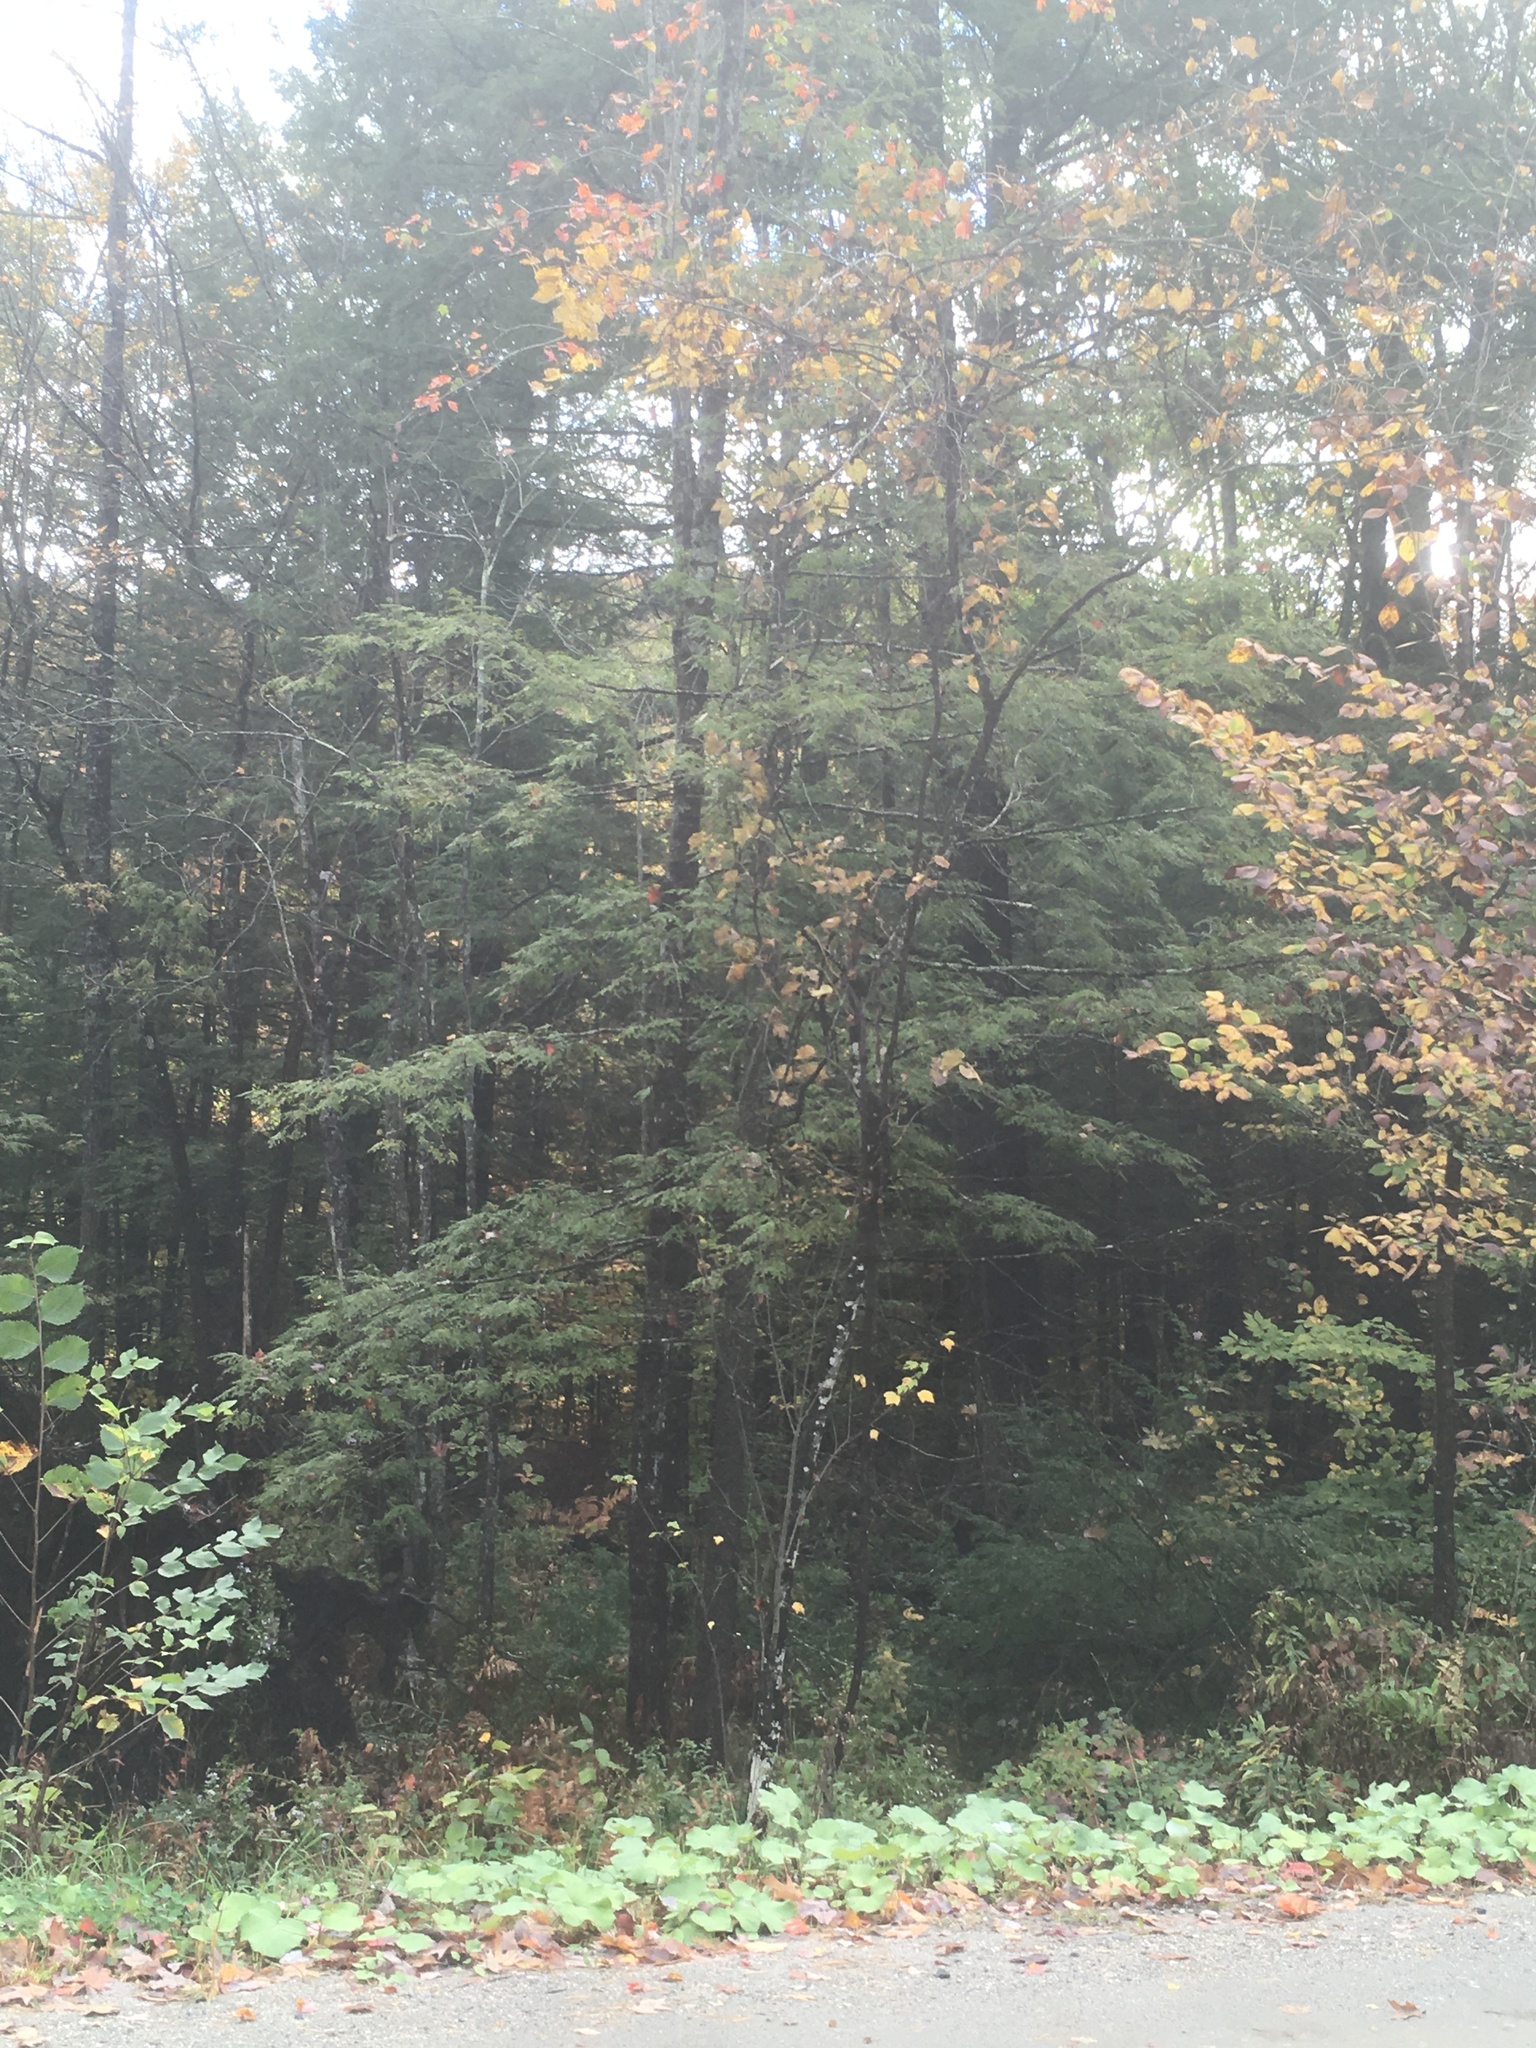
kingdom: Plantae
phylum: Tracheophyta
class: Pinopsida
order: Pinales
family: Pinaceae
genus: Tsuga
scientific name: Tsuga canadensis
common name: Eastern hemlock
